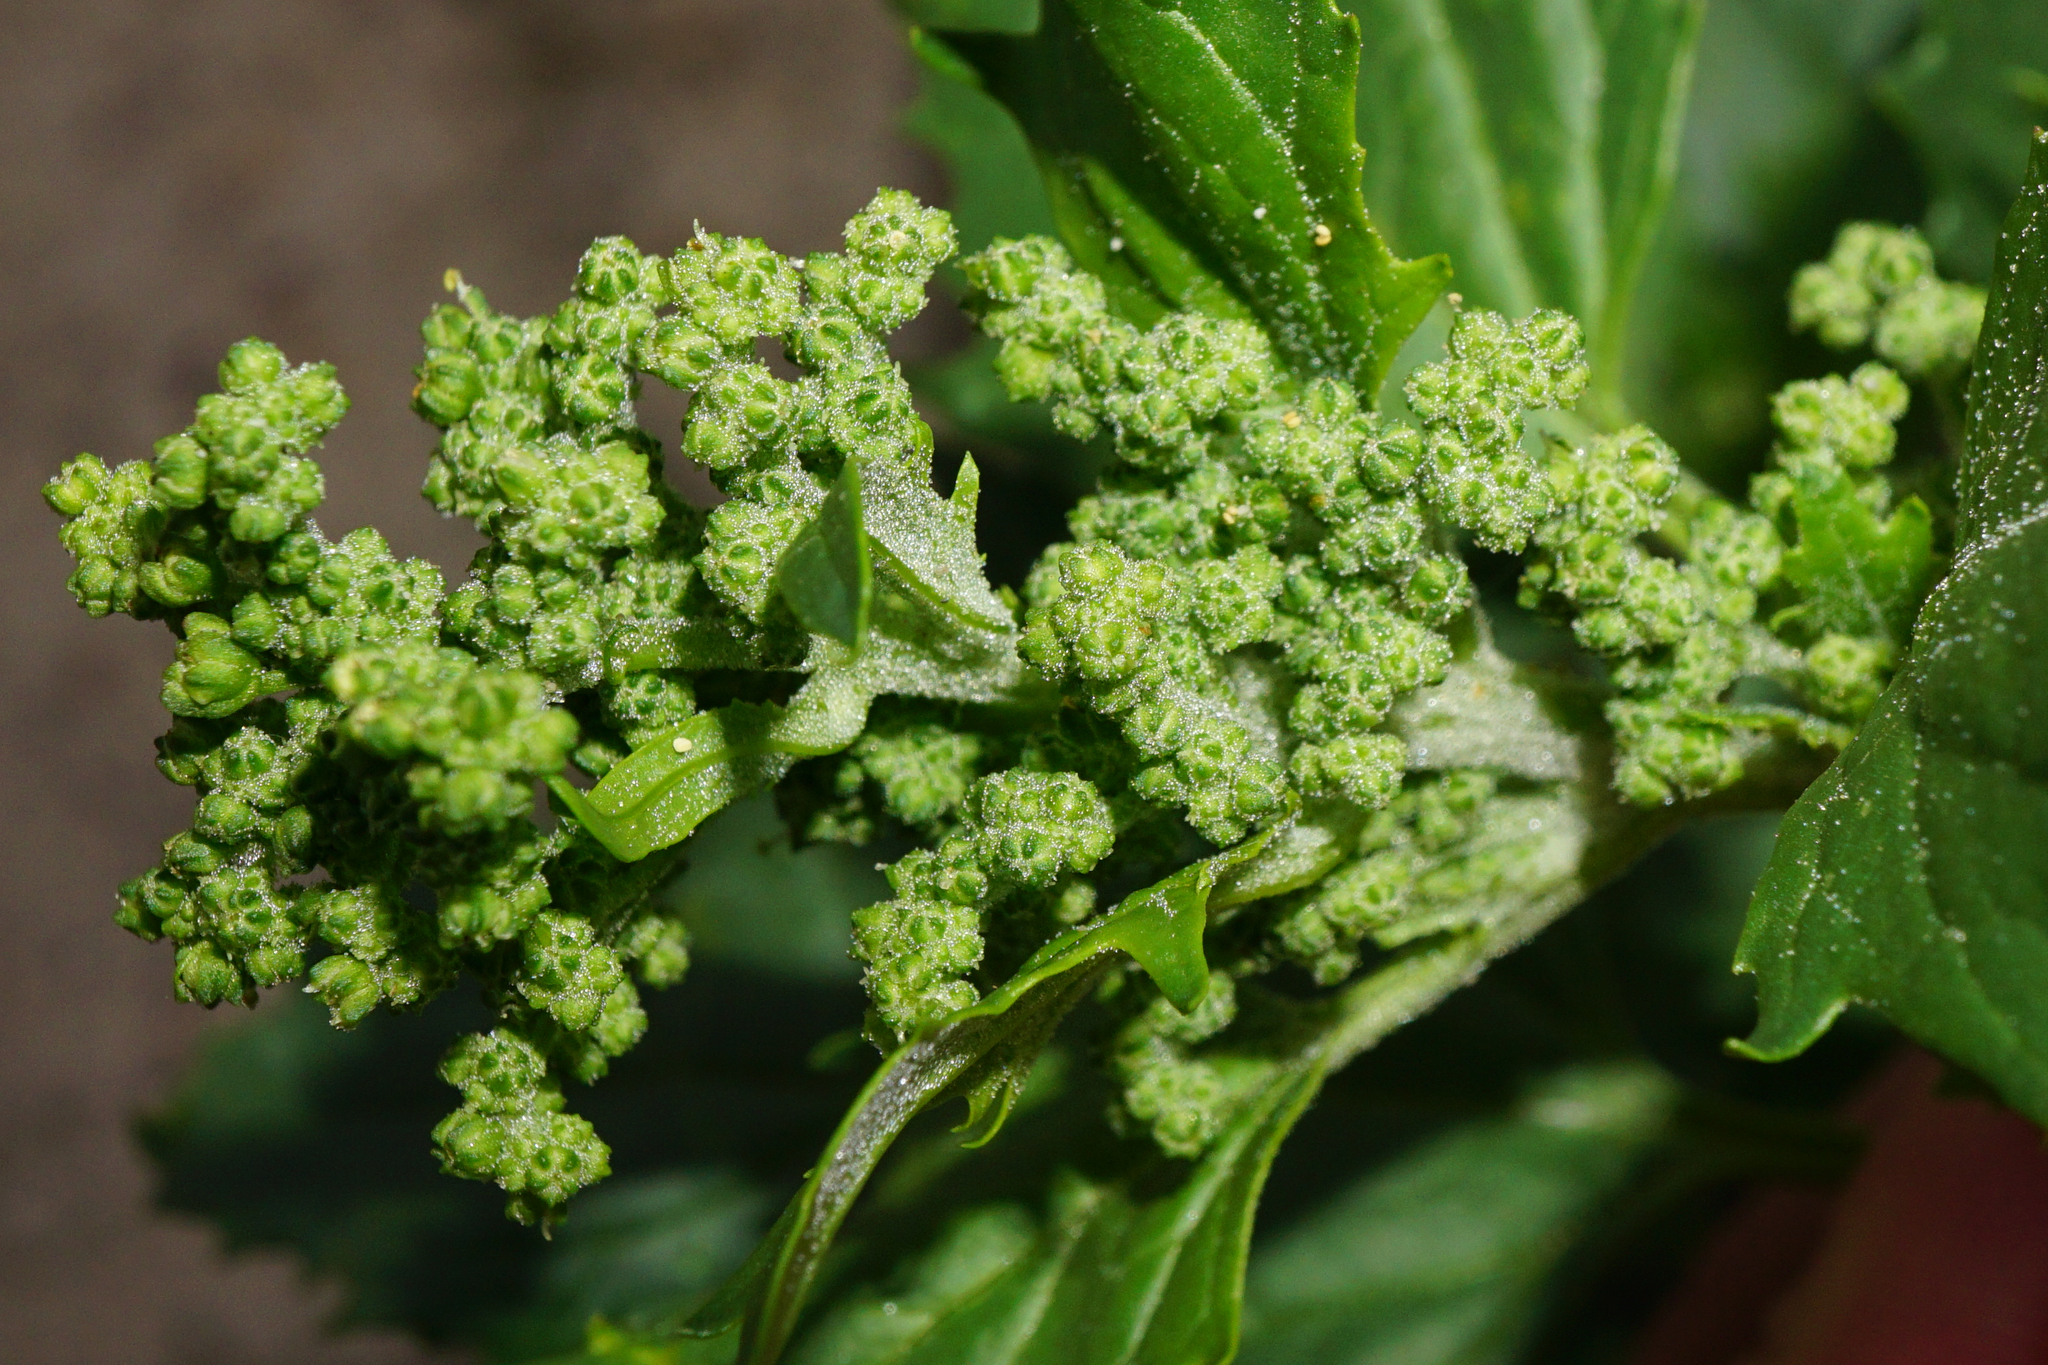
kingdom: Plantae
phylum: Tracheophyta
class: Magnoliopsida
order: Caryophyllales
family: Amaranthaceae
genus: Chenopodiastrum
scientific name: Chenopodiastrum murale
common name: Sowbane
